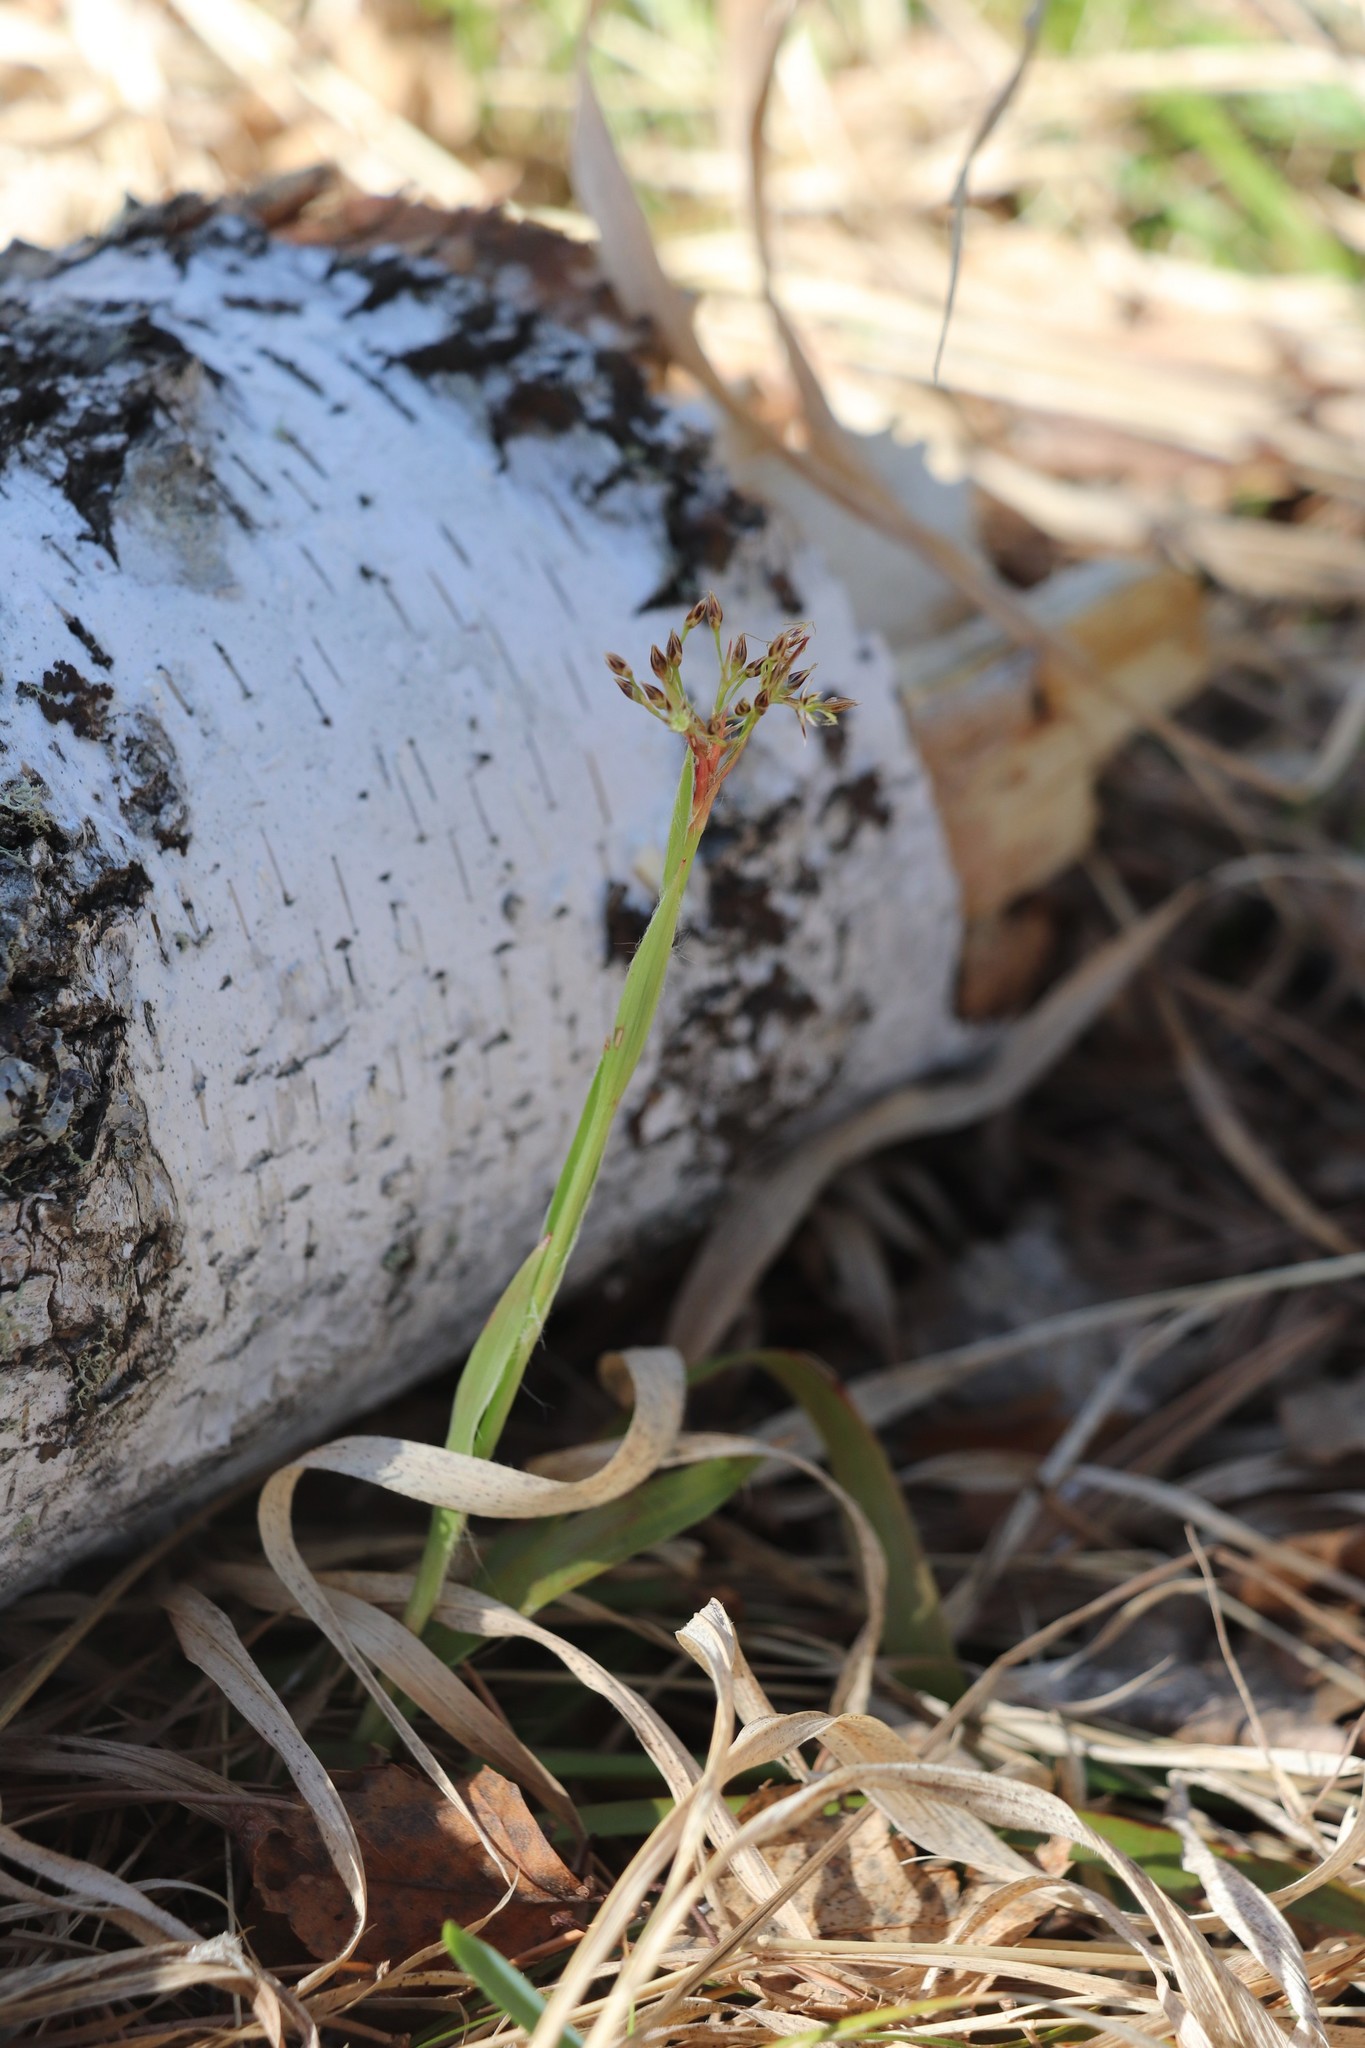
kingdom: Plantae
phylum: Tracheophyta
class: Liliopsida
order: Poales
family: Juncaceae
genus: Luzula
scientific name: Luzula pilosa
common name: Hairy wood-rush
